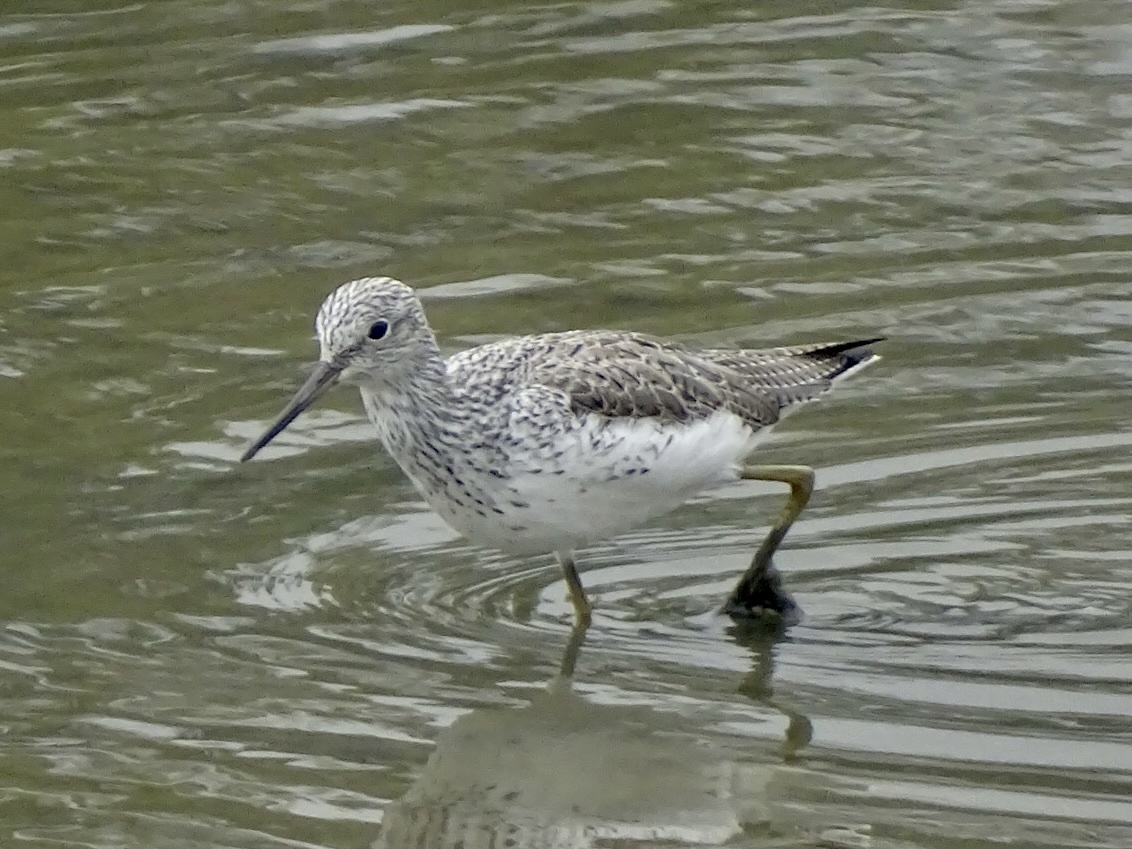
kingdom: Animalia
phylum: Chordata
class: Aves
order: Charadriiformes
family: Scolopacidae
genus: Tringa
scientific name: Tringa nebularia
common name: Common greenshank
